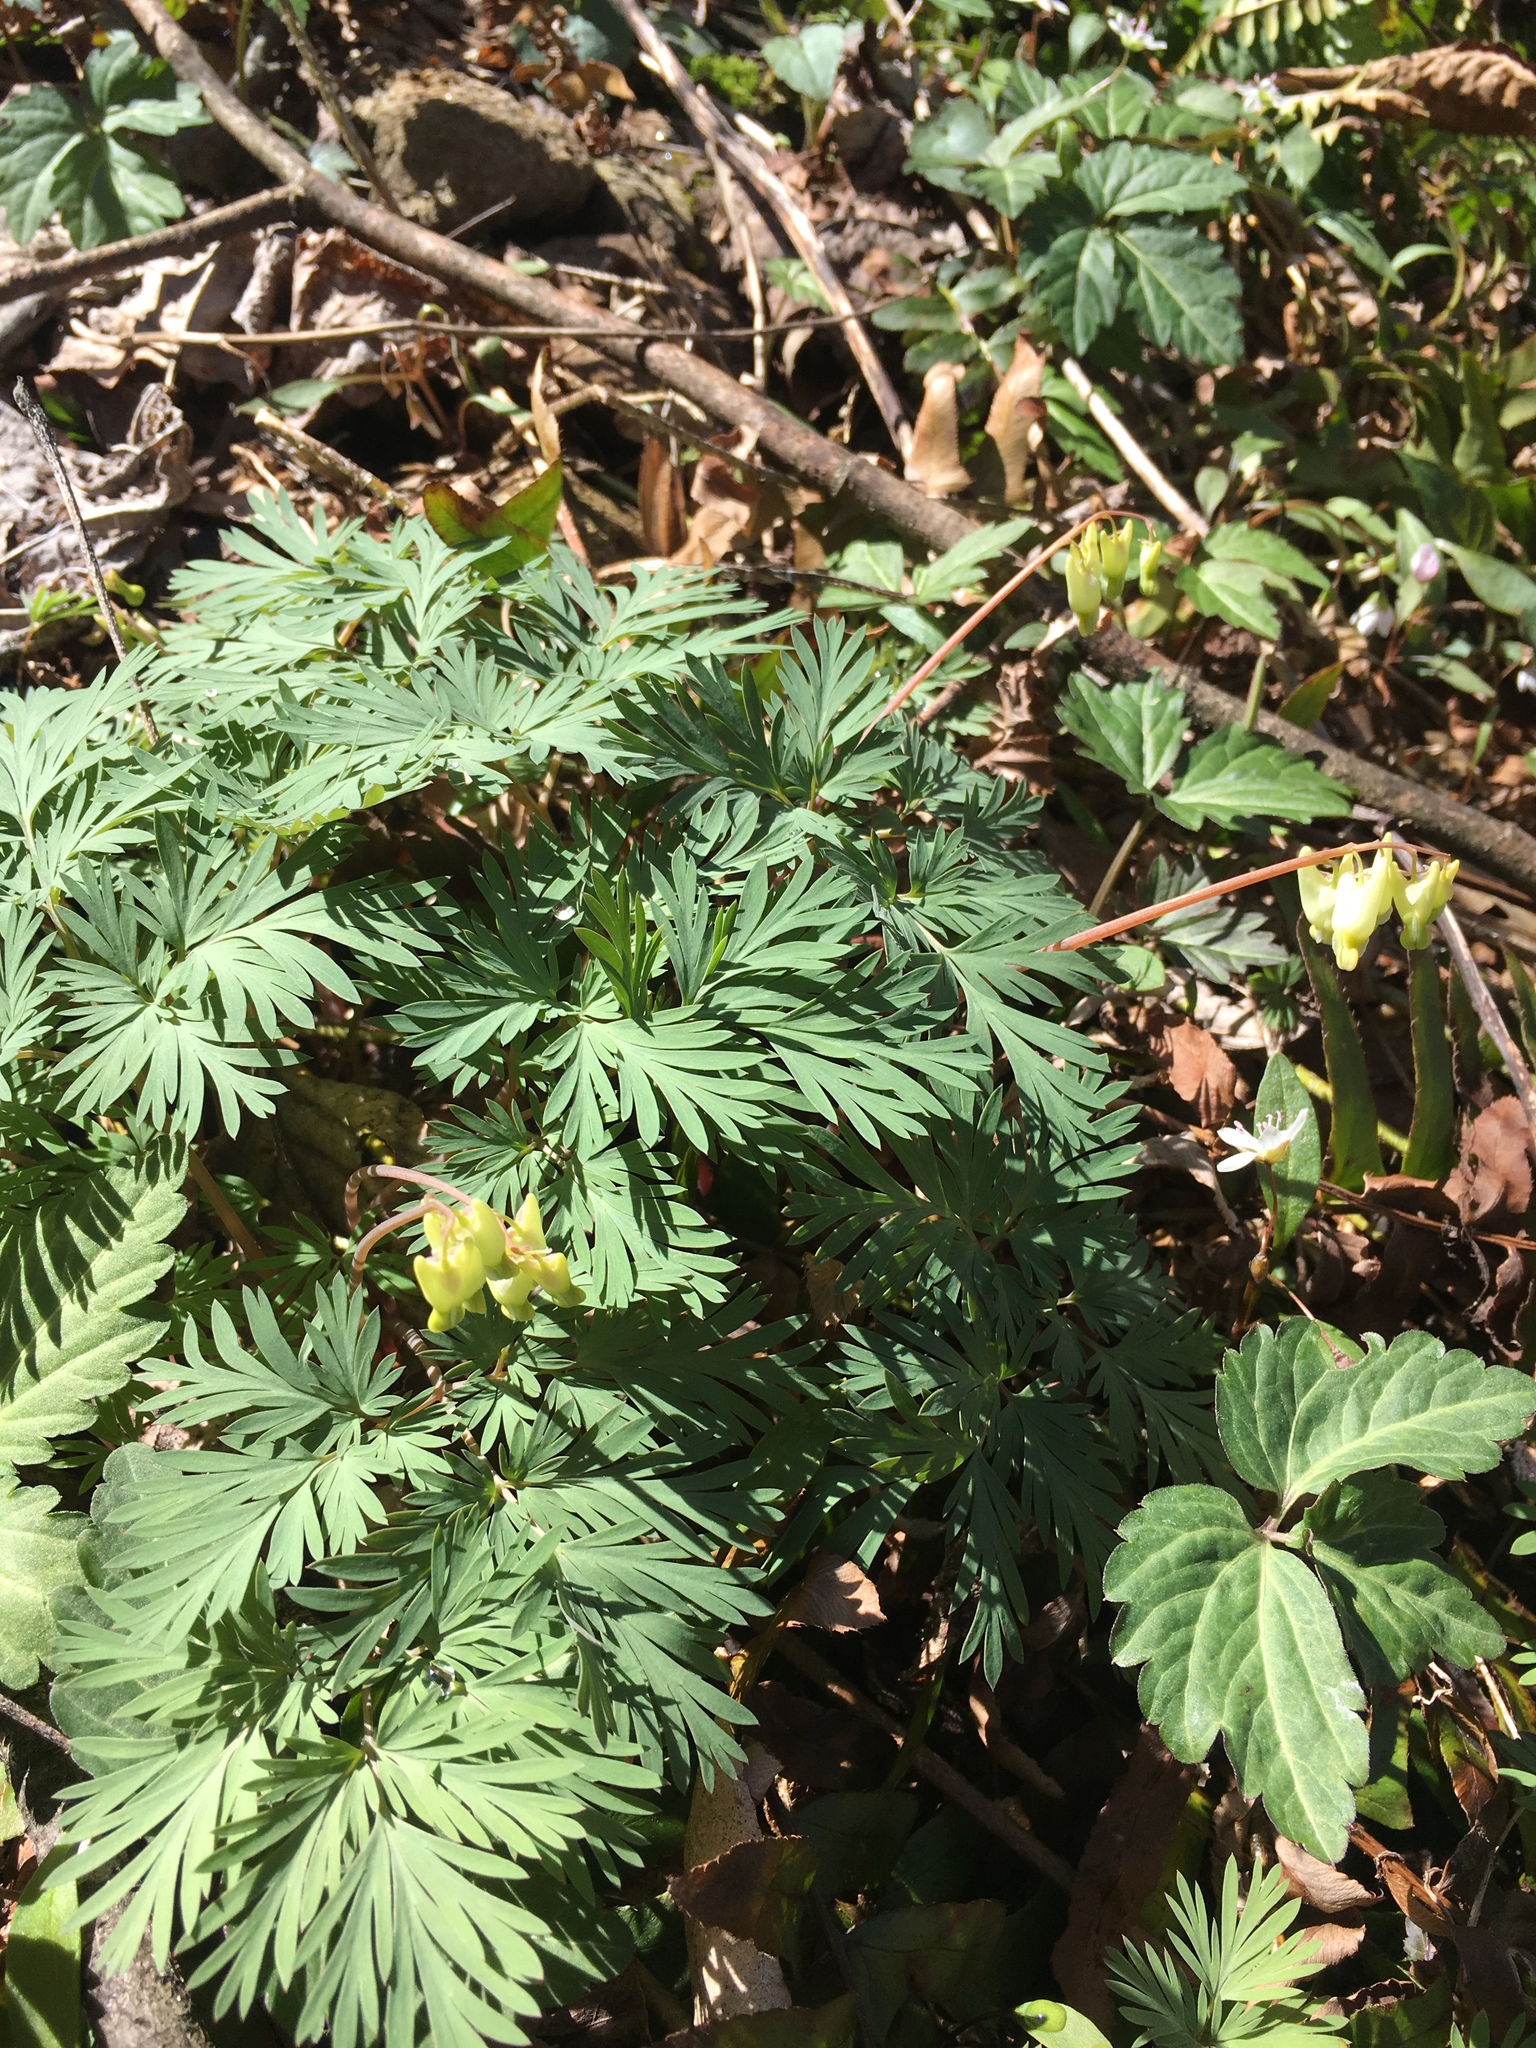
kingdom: Plantae
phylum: Tracheophyta
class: Magnoliopsida
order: Ranunculales
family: Papaveraceae
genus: Dicentra
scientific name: Dicentra cucullaria
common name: Dutchman's breeches
